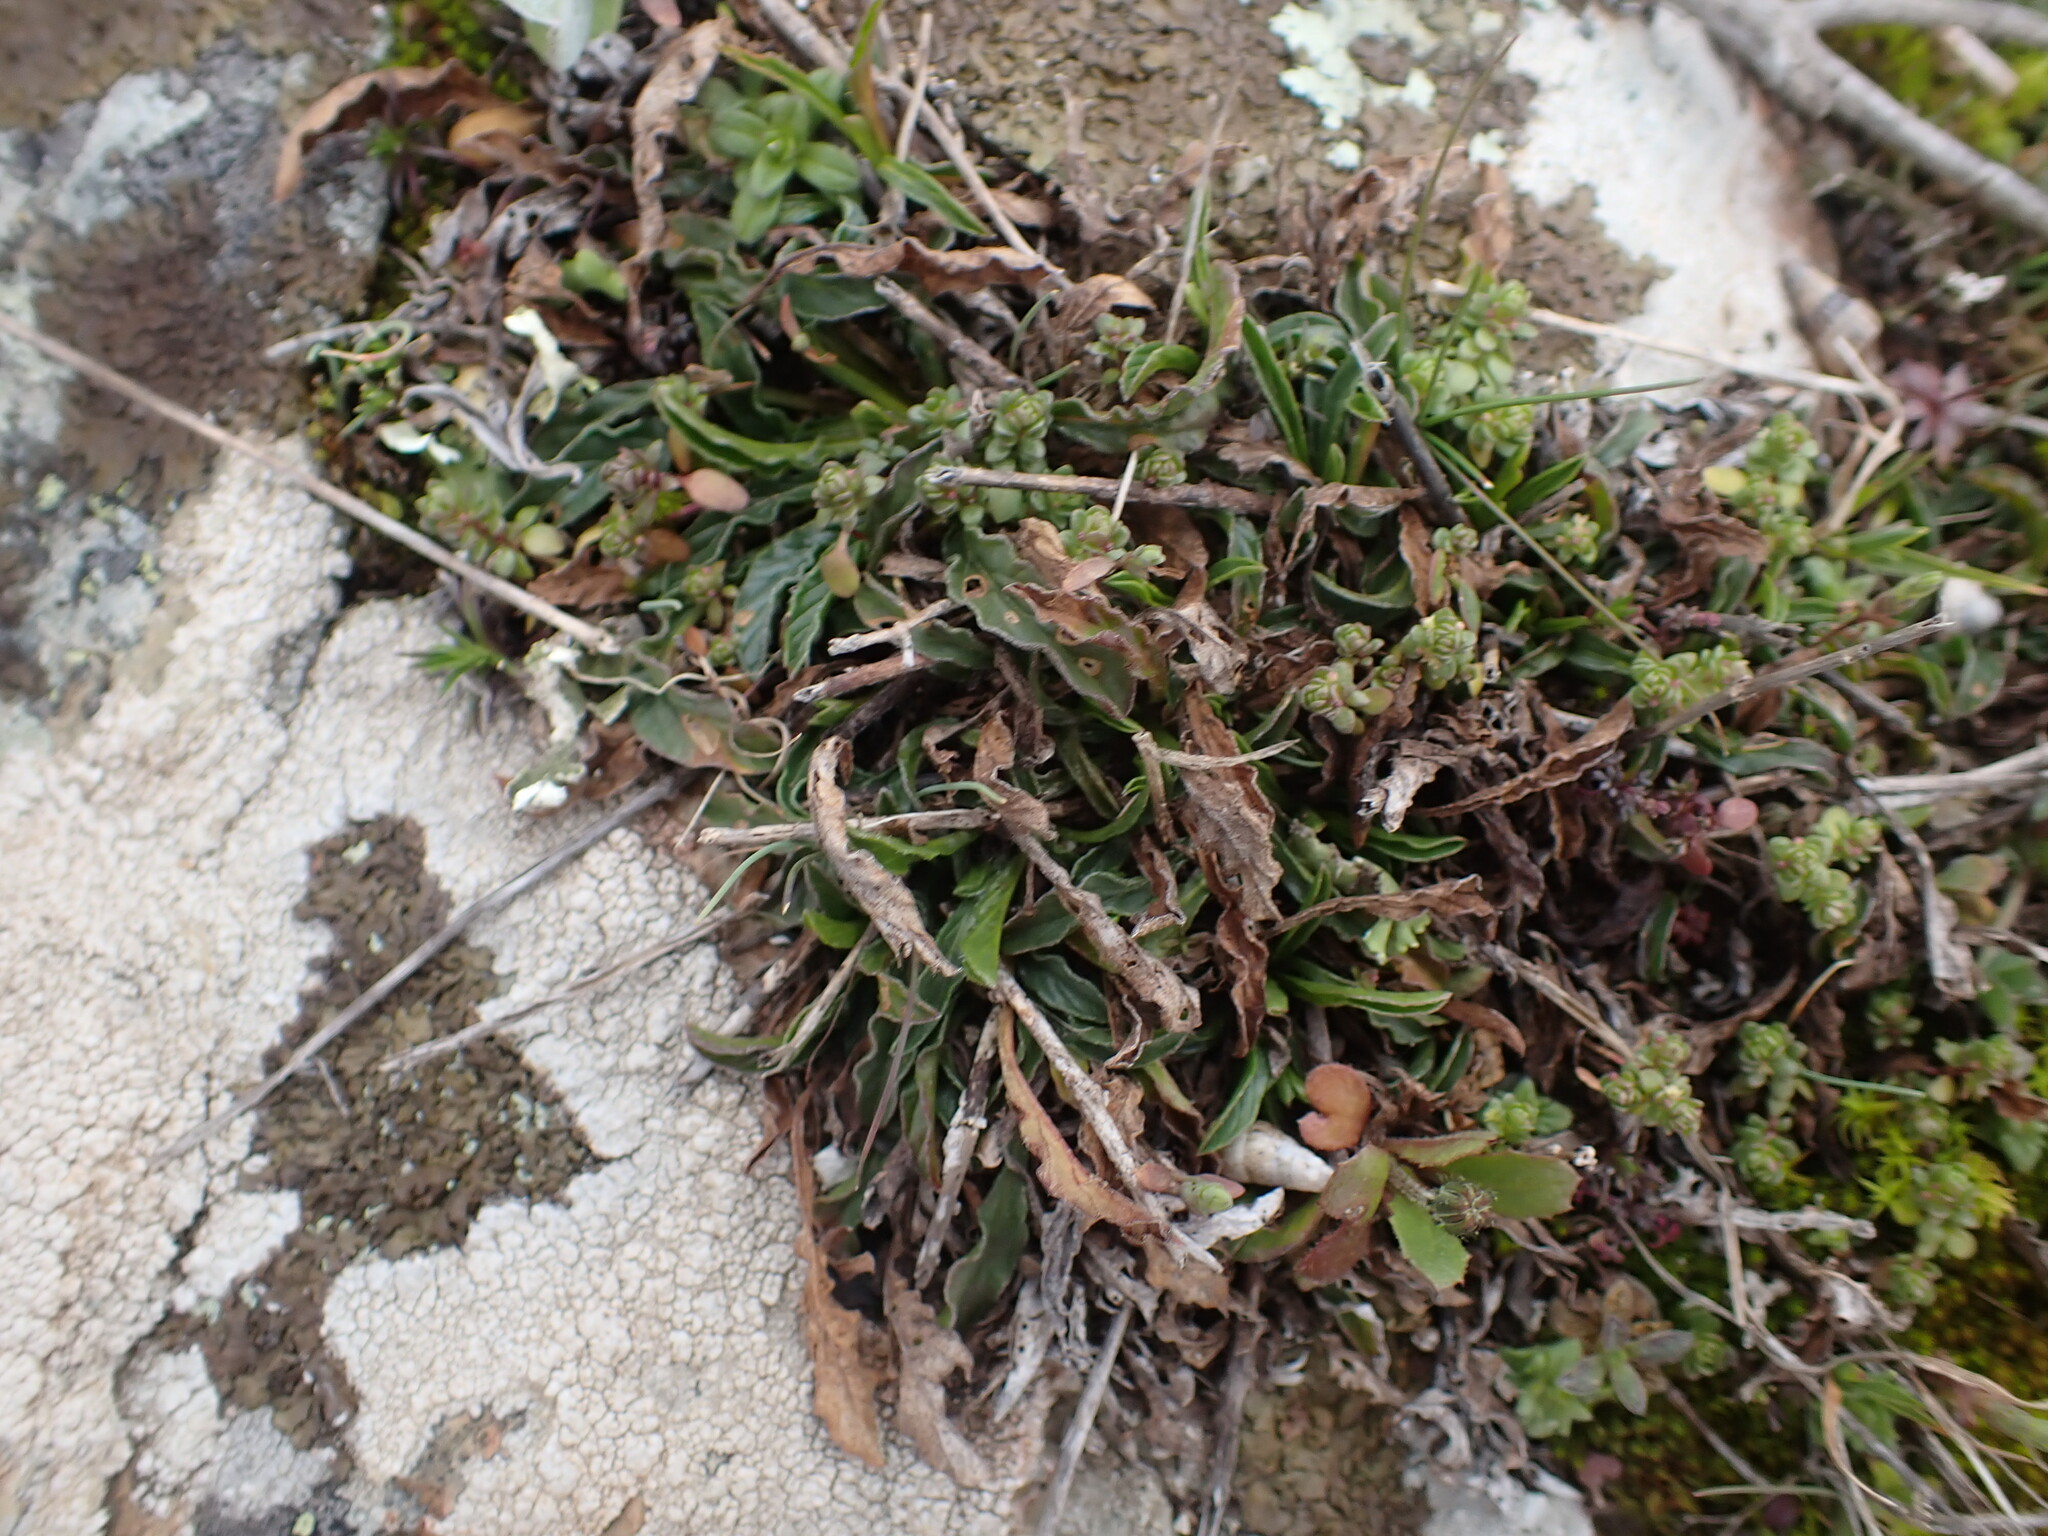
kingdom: Plantae
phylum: Tracheophyta
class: Magnoliopsida
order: Solanales
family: Convolvulaceae
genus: Convolvulus
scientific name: Convolvulus cantabrica
